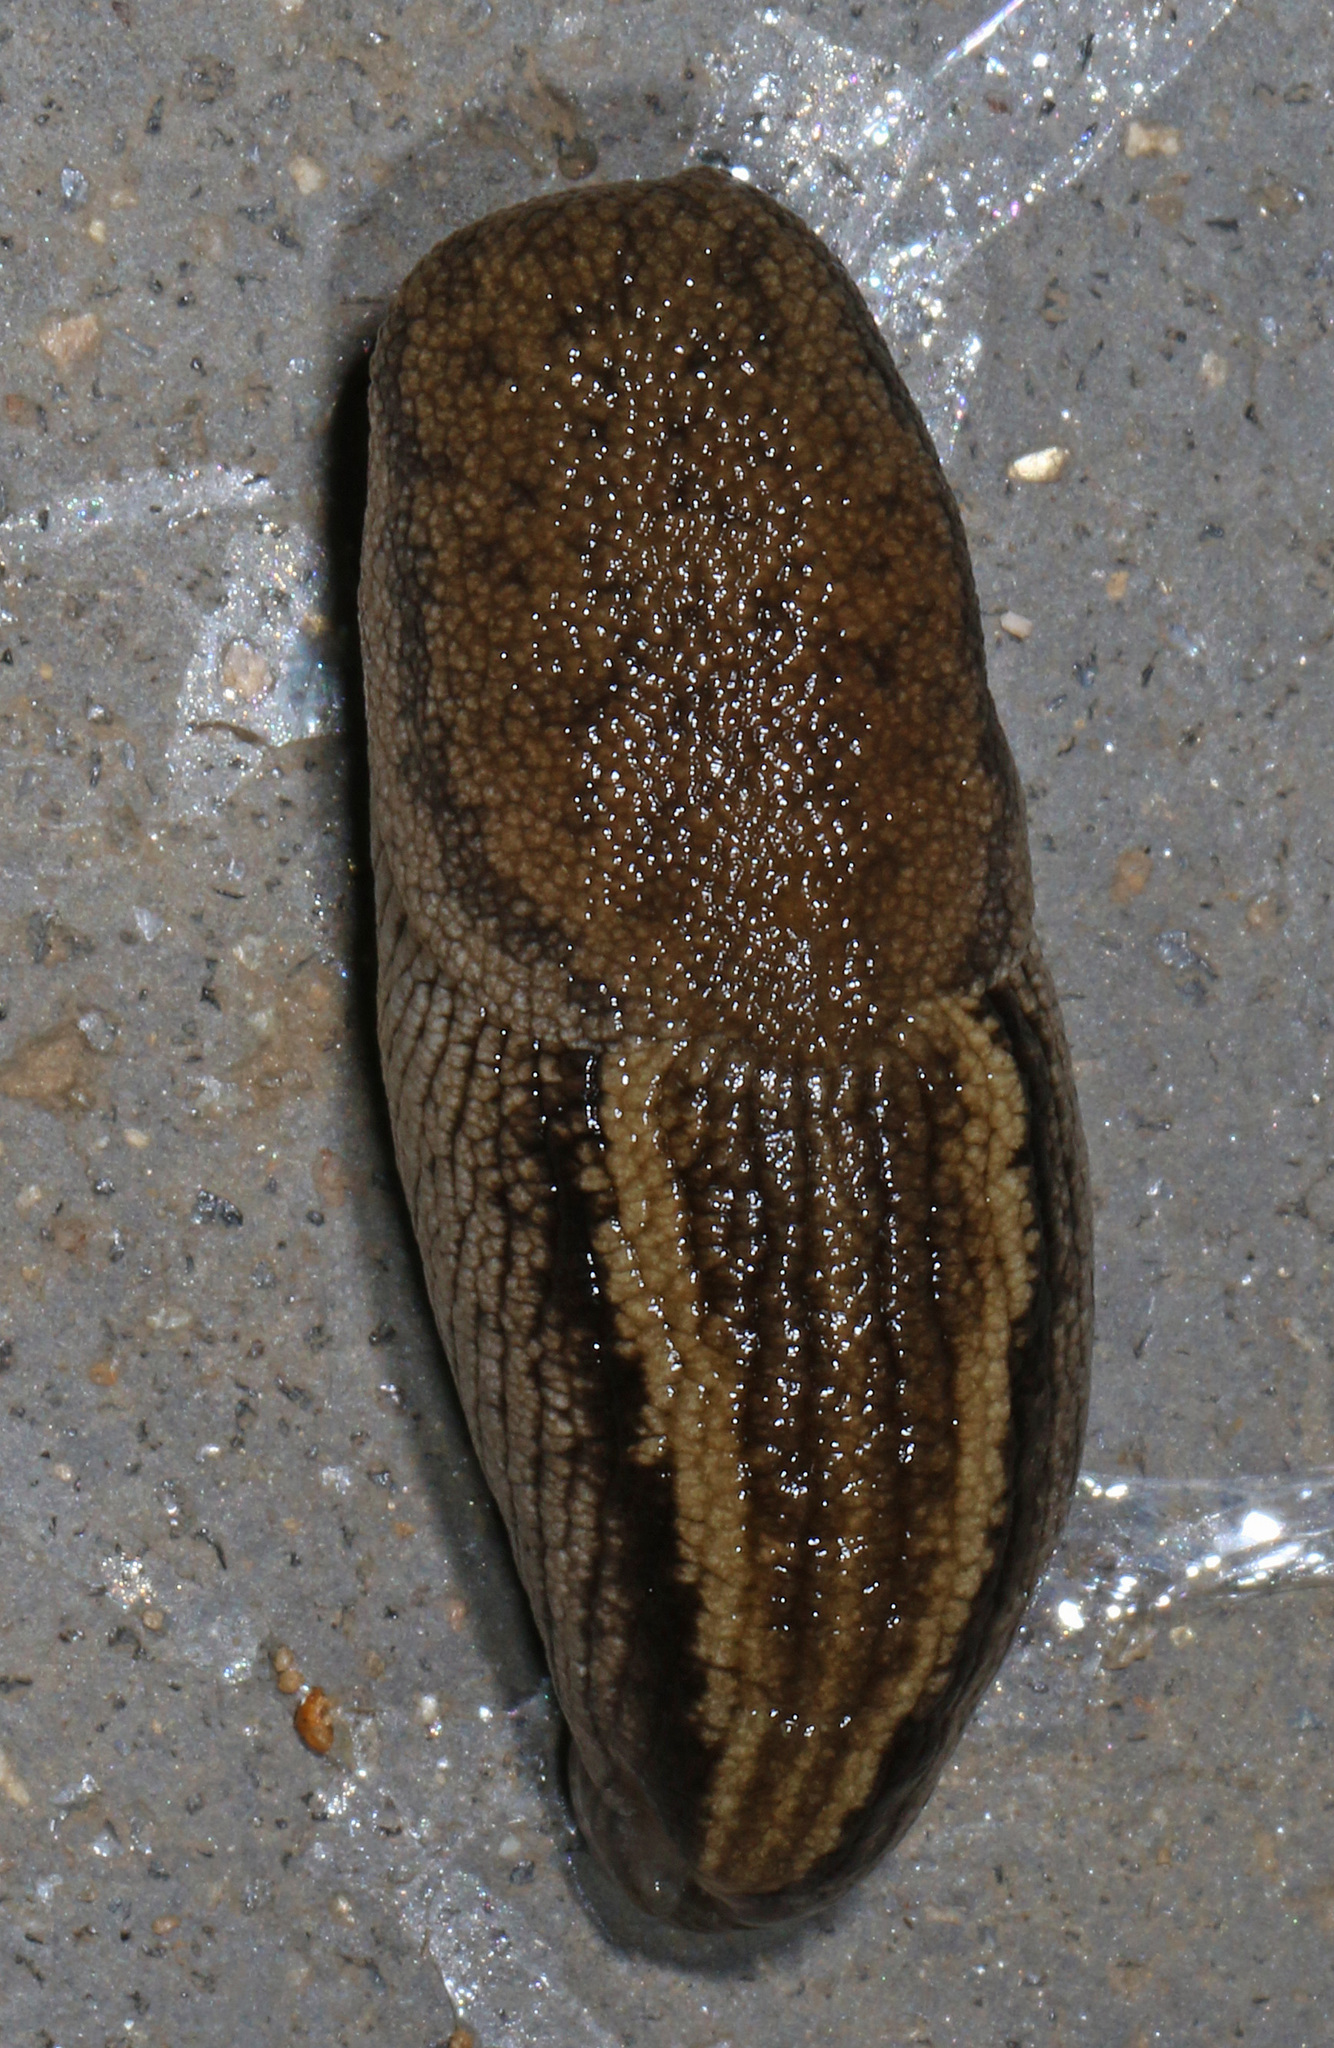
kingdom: Animalia
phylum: Mollusca
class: Gastropoda
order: Stylommatophora
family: Urocyclidae
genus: Urocyclus
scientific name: Urocyclus kirkii
